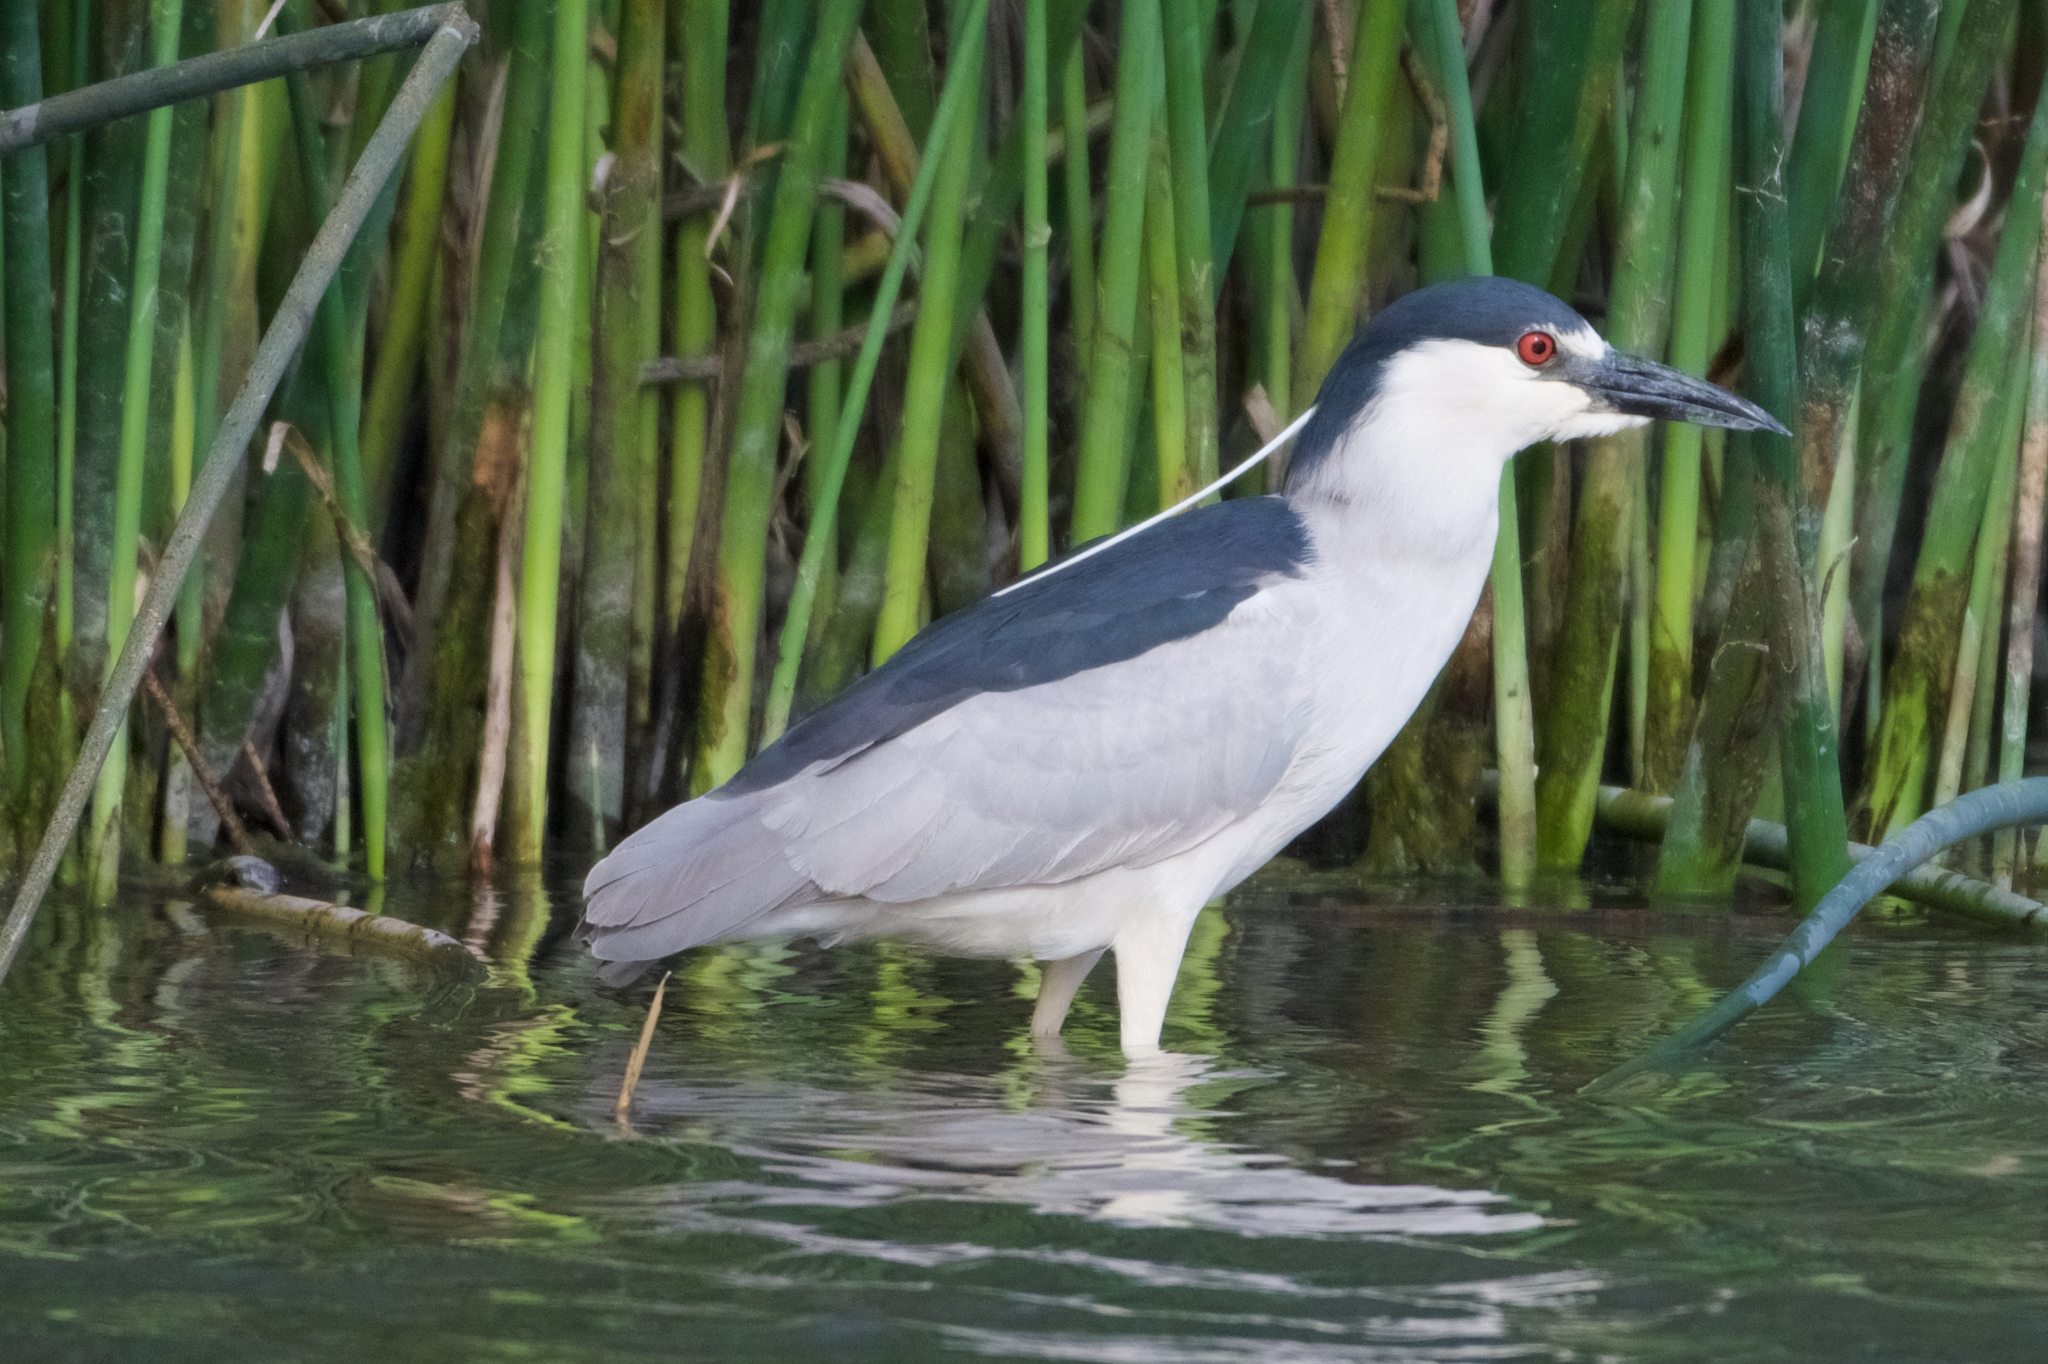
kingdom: Animalia
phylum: Chordata
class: Aves
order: Pelecaniformes
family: Ardeidae
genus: Nycticorax
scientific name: Nycticorax nycticorax
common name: Black-crowned night heron
